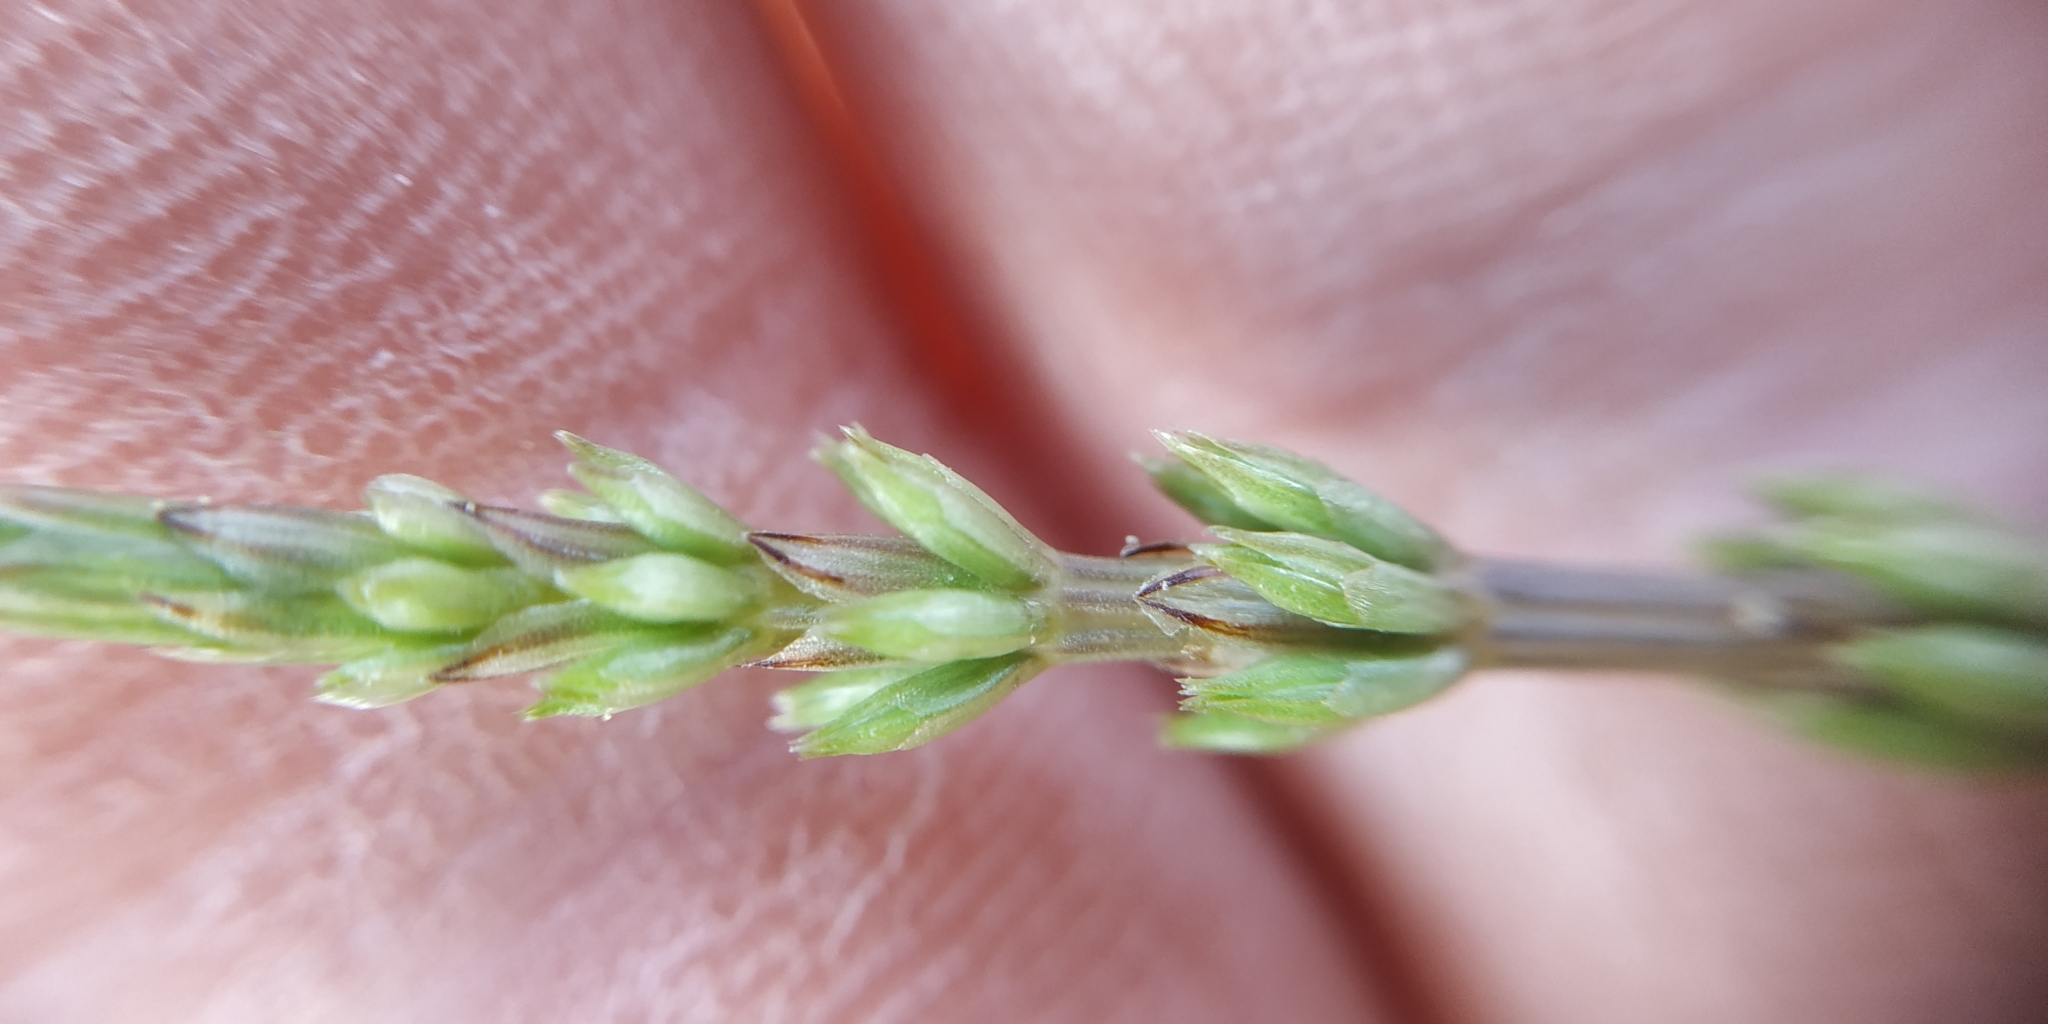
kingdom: Plantae
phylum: Tracheophyta
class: Polypodiopsida
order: Equisetales
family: Equisetaceae
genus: Equisetum
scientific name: Equisetum arvense
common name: Field horsetail
